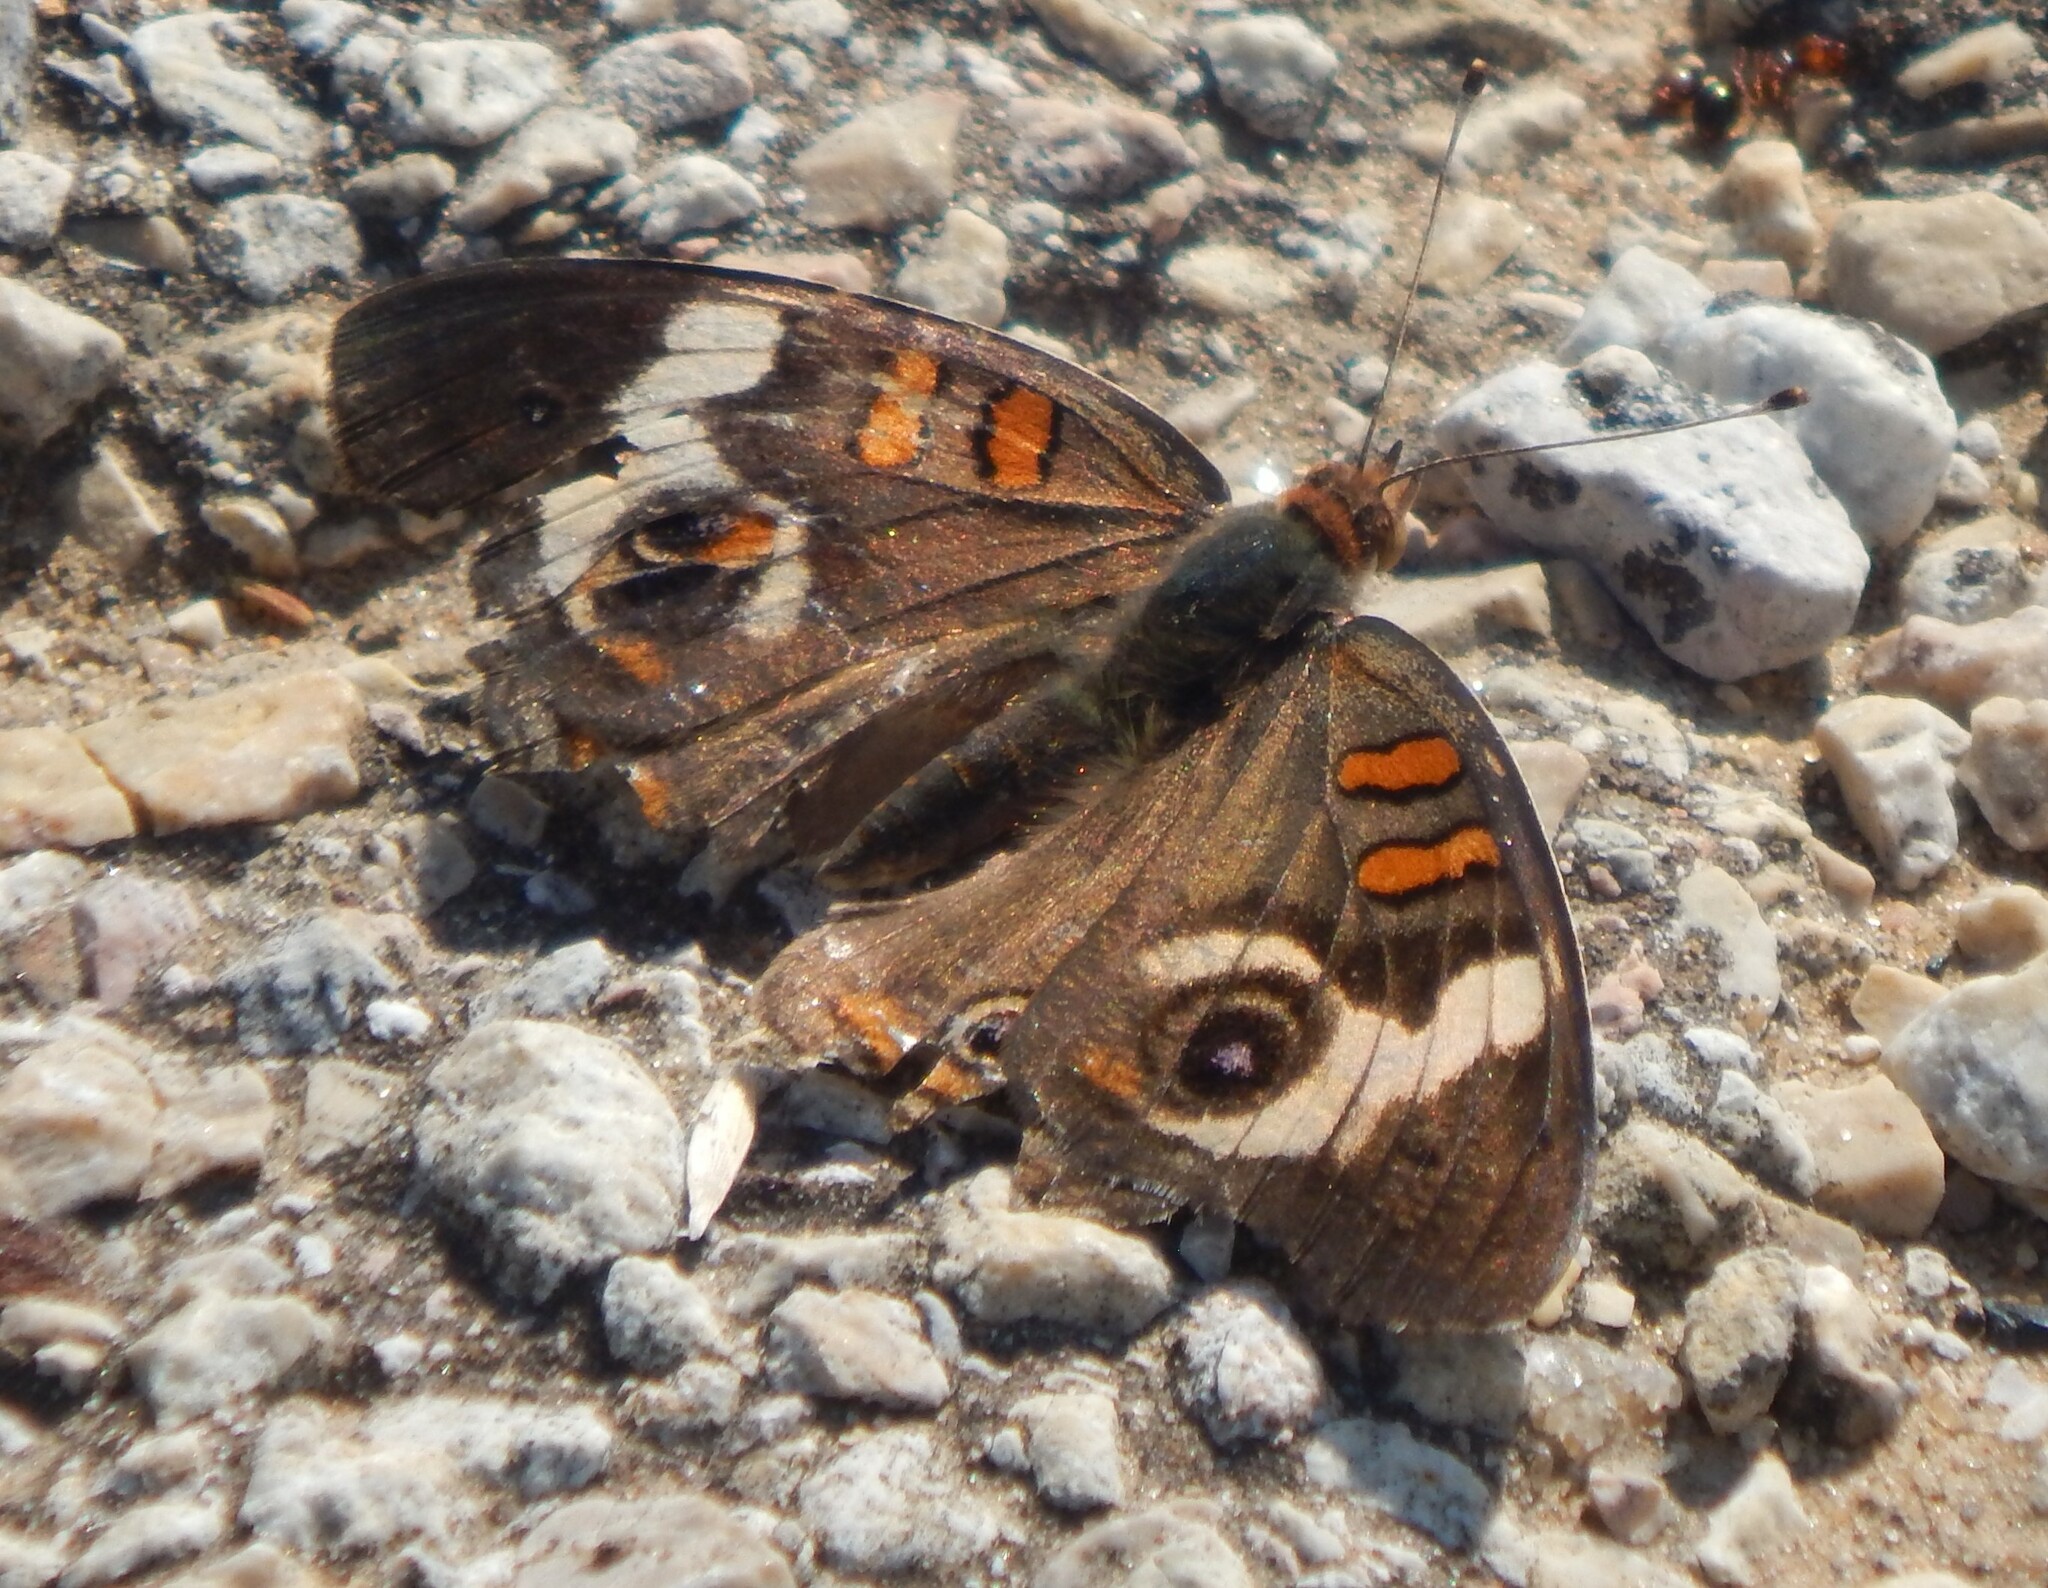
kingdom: Animalia
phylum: Arthropoda
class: Insecta
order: Lepidoptera
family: Nymphalidae
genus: Junonia
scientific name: Junonia coenia
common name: Common buckeye
